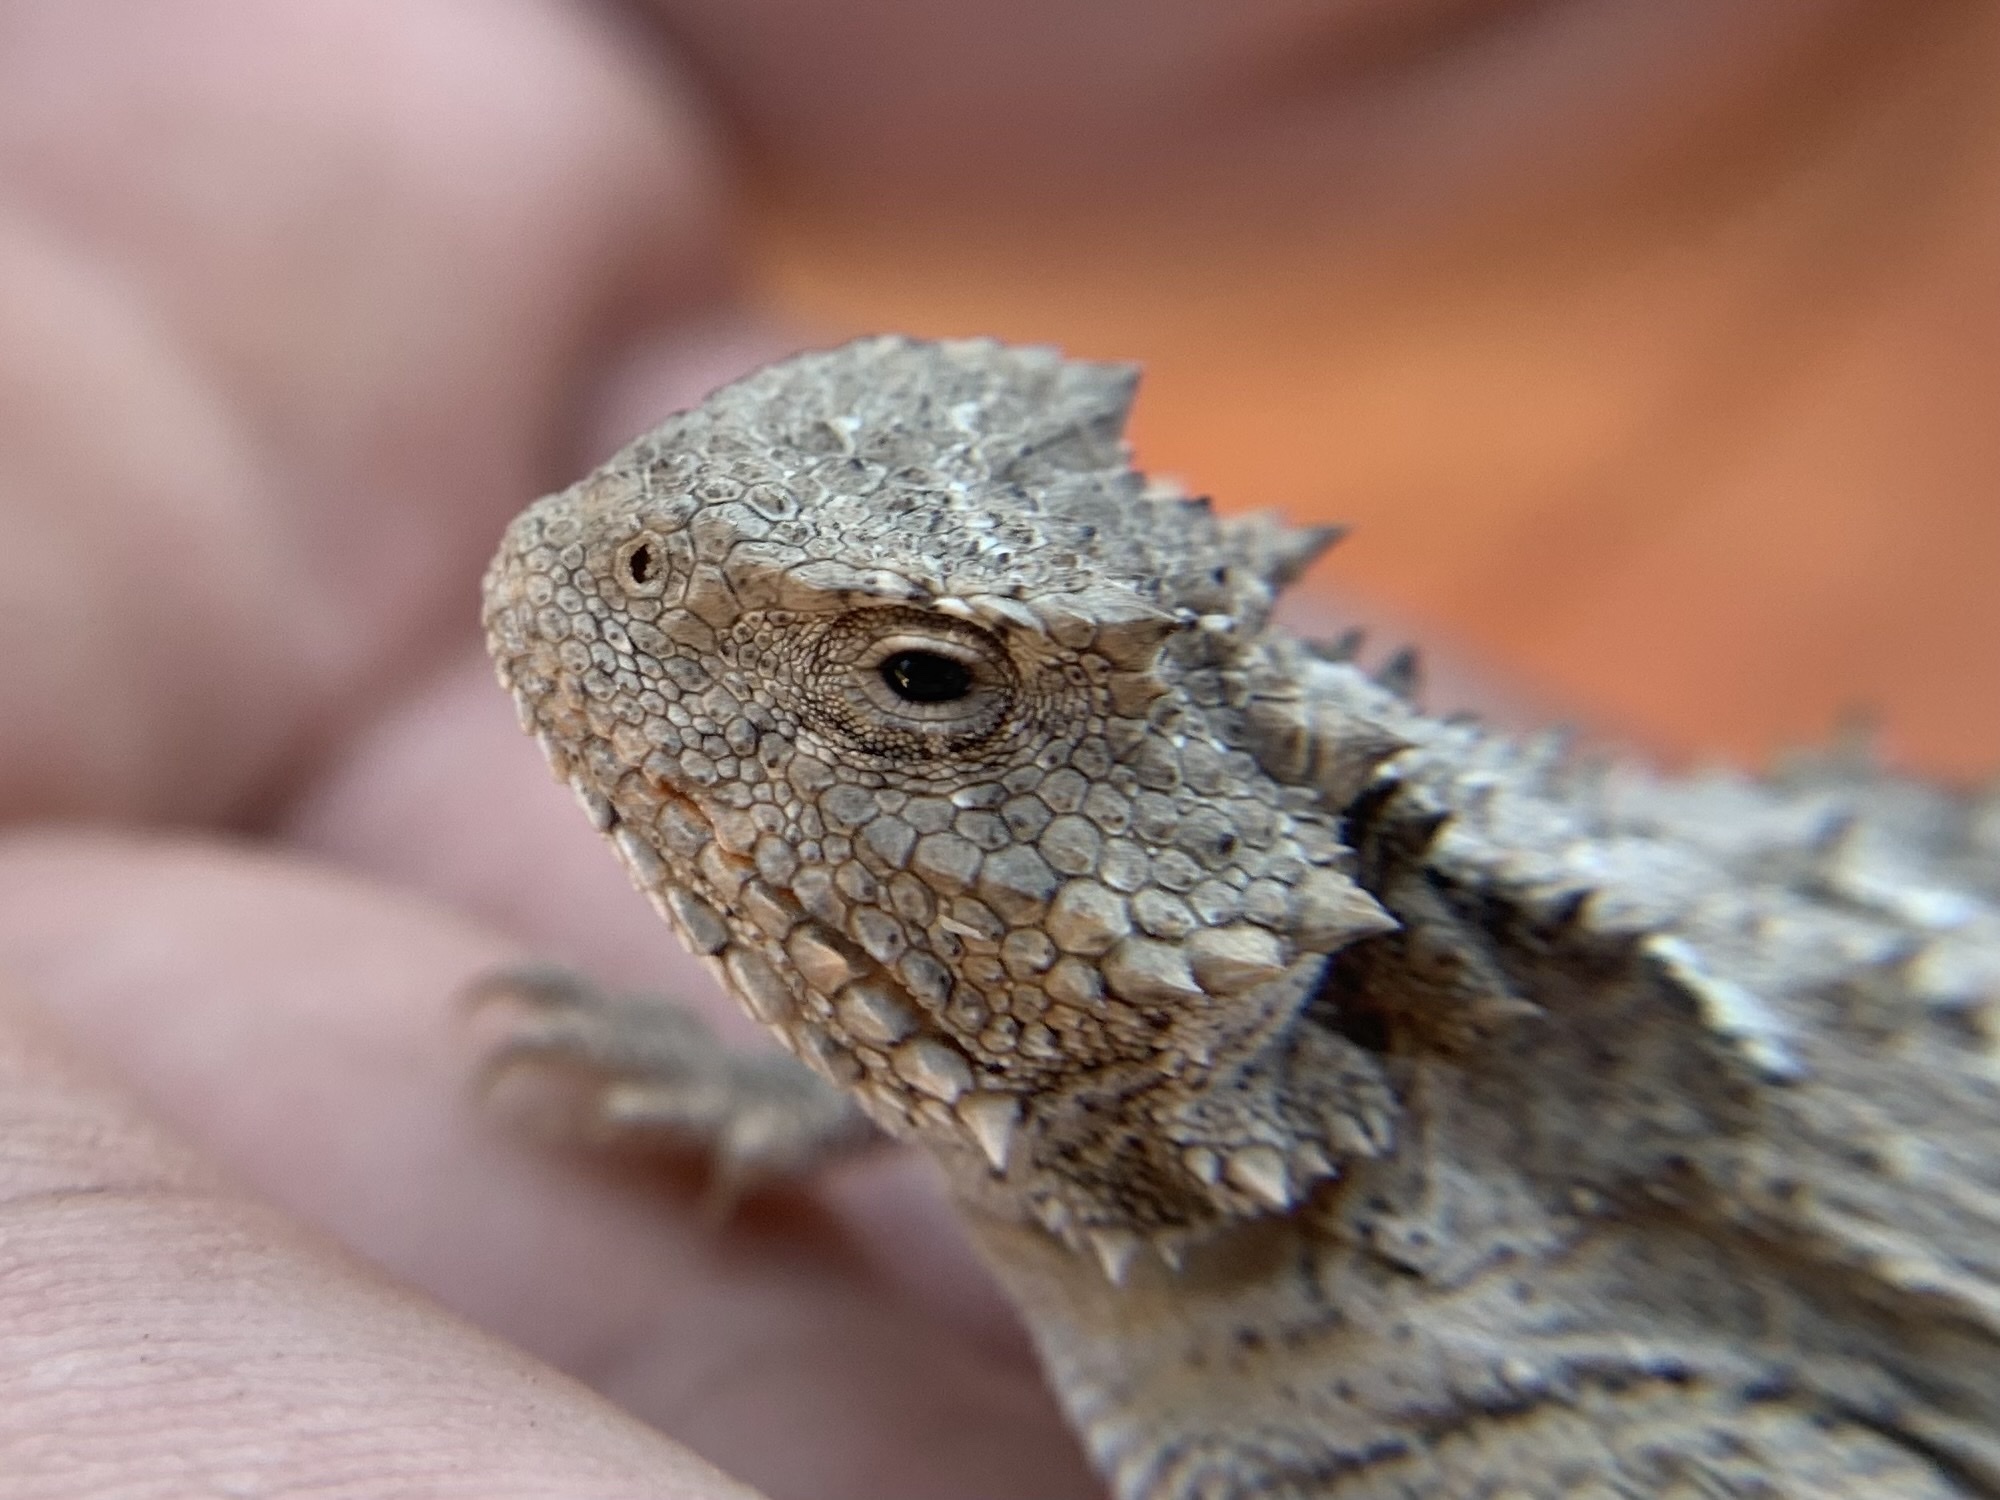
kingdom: Animalia
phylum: Chordata
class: Squamata
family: Phrynosomatidae
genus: Phrynosoma
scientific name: Phrynosoma hernandesi
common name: Greater short-horned lizard
